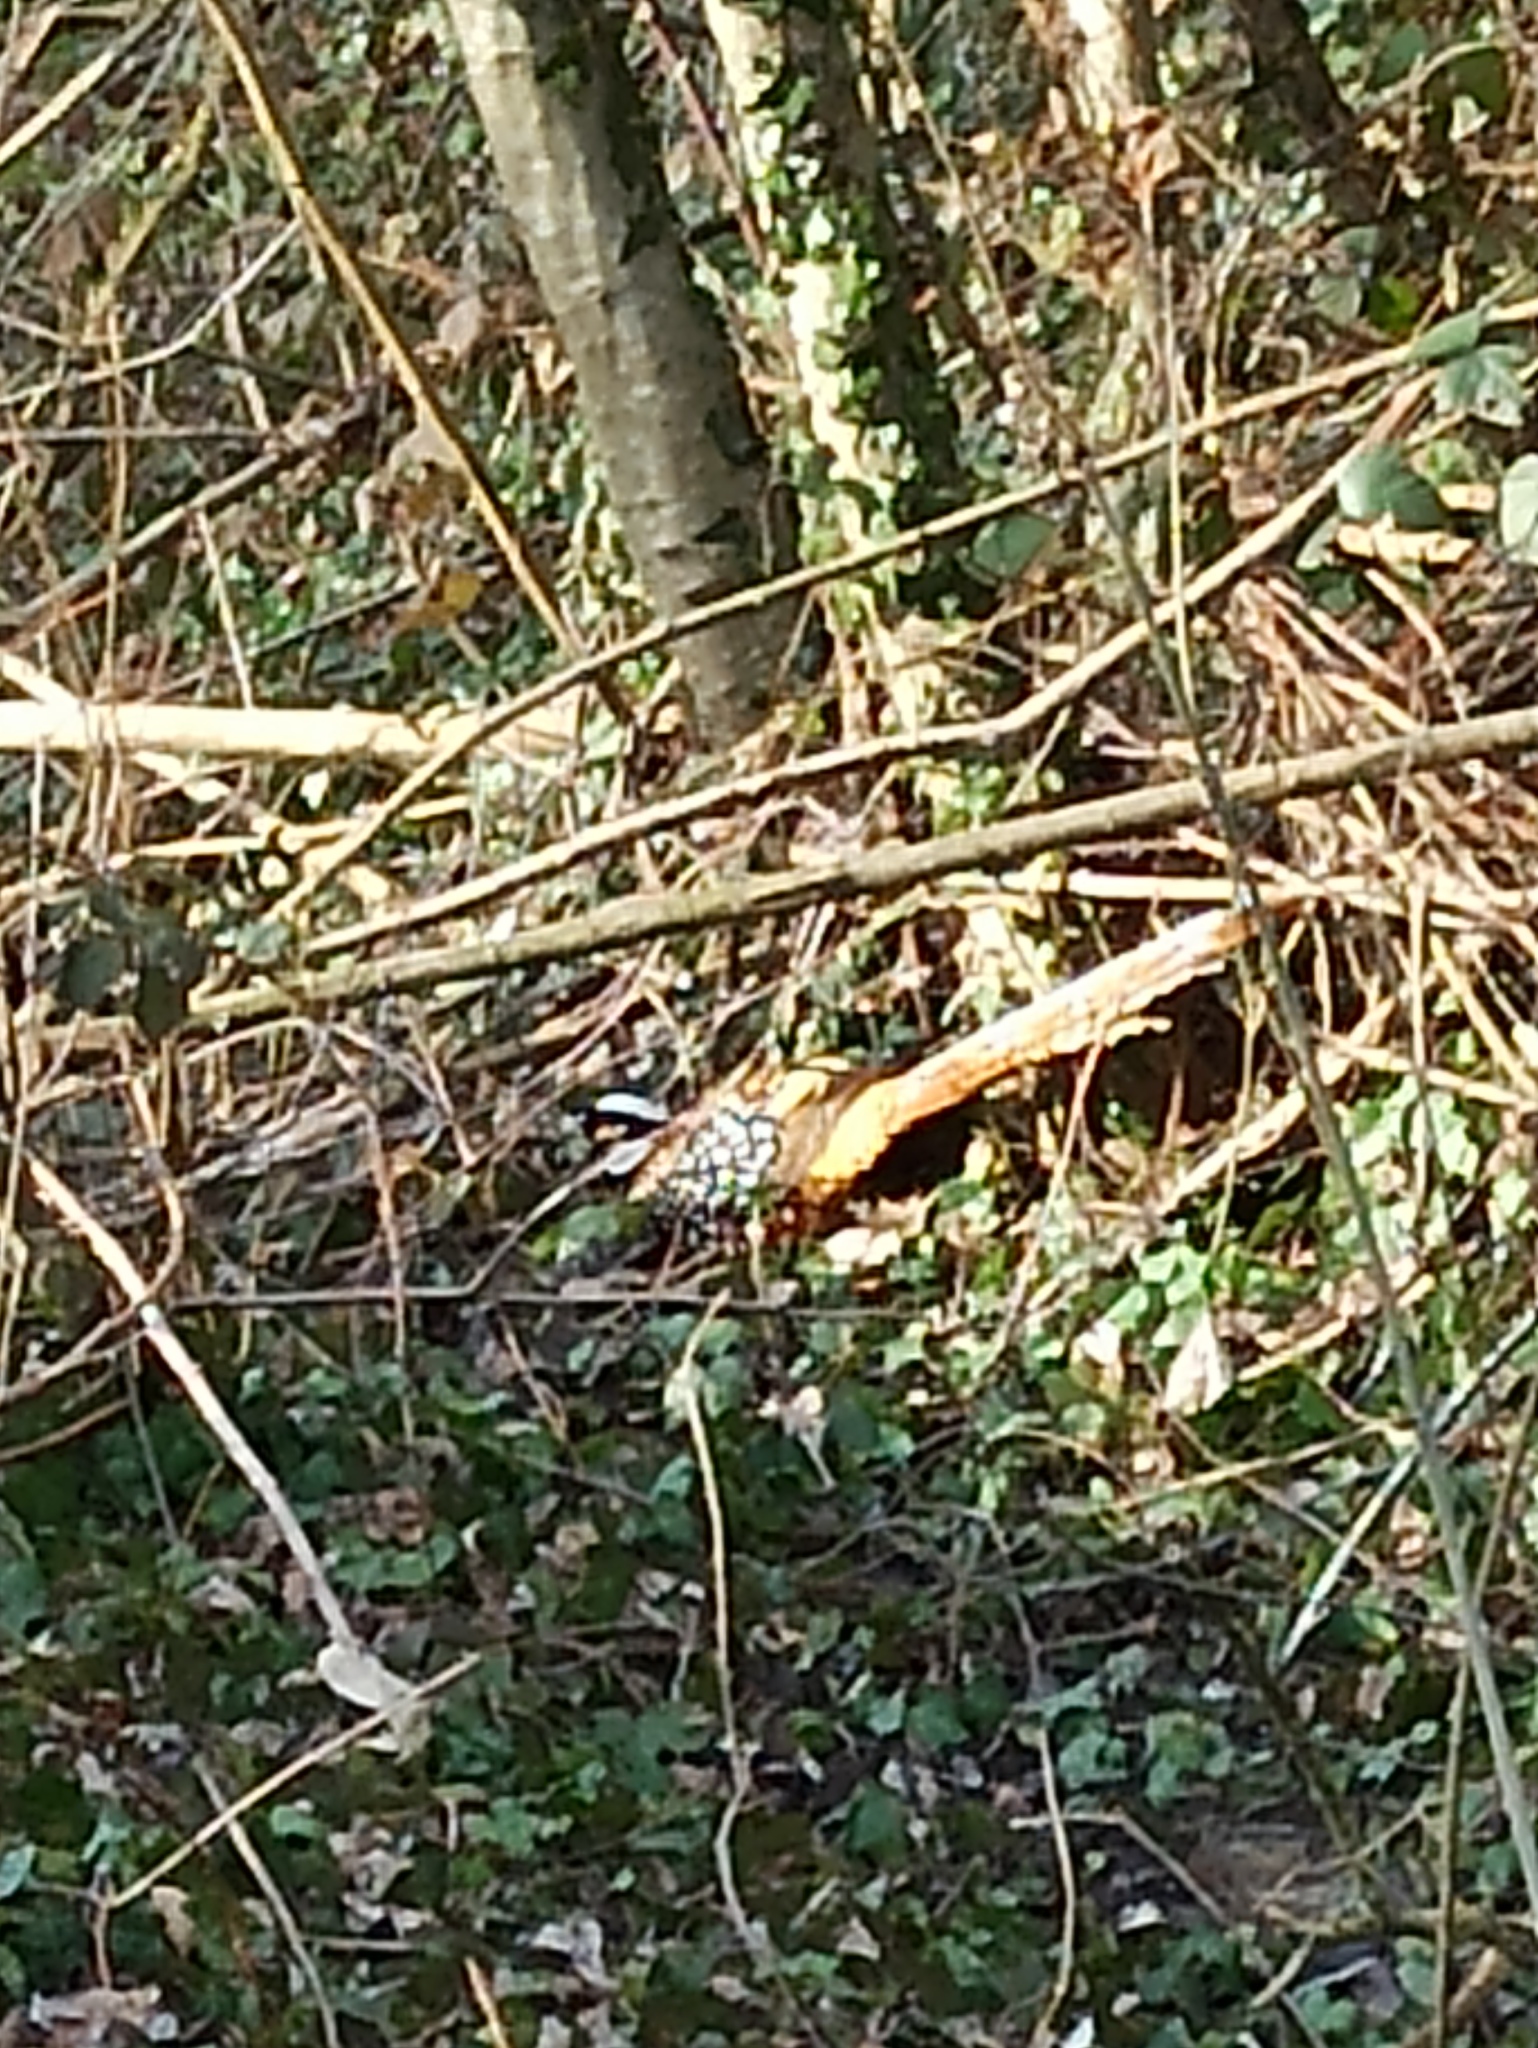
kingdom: Animalia
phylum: Chordata
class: Aves
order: Galliformes
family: Phasianidae
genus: Syrmaticus
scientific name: Syrmaticus reevesii
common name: Reeves's pheasant
